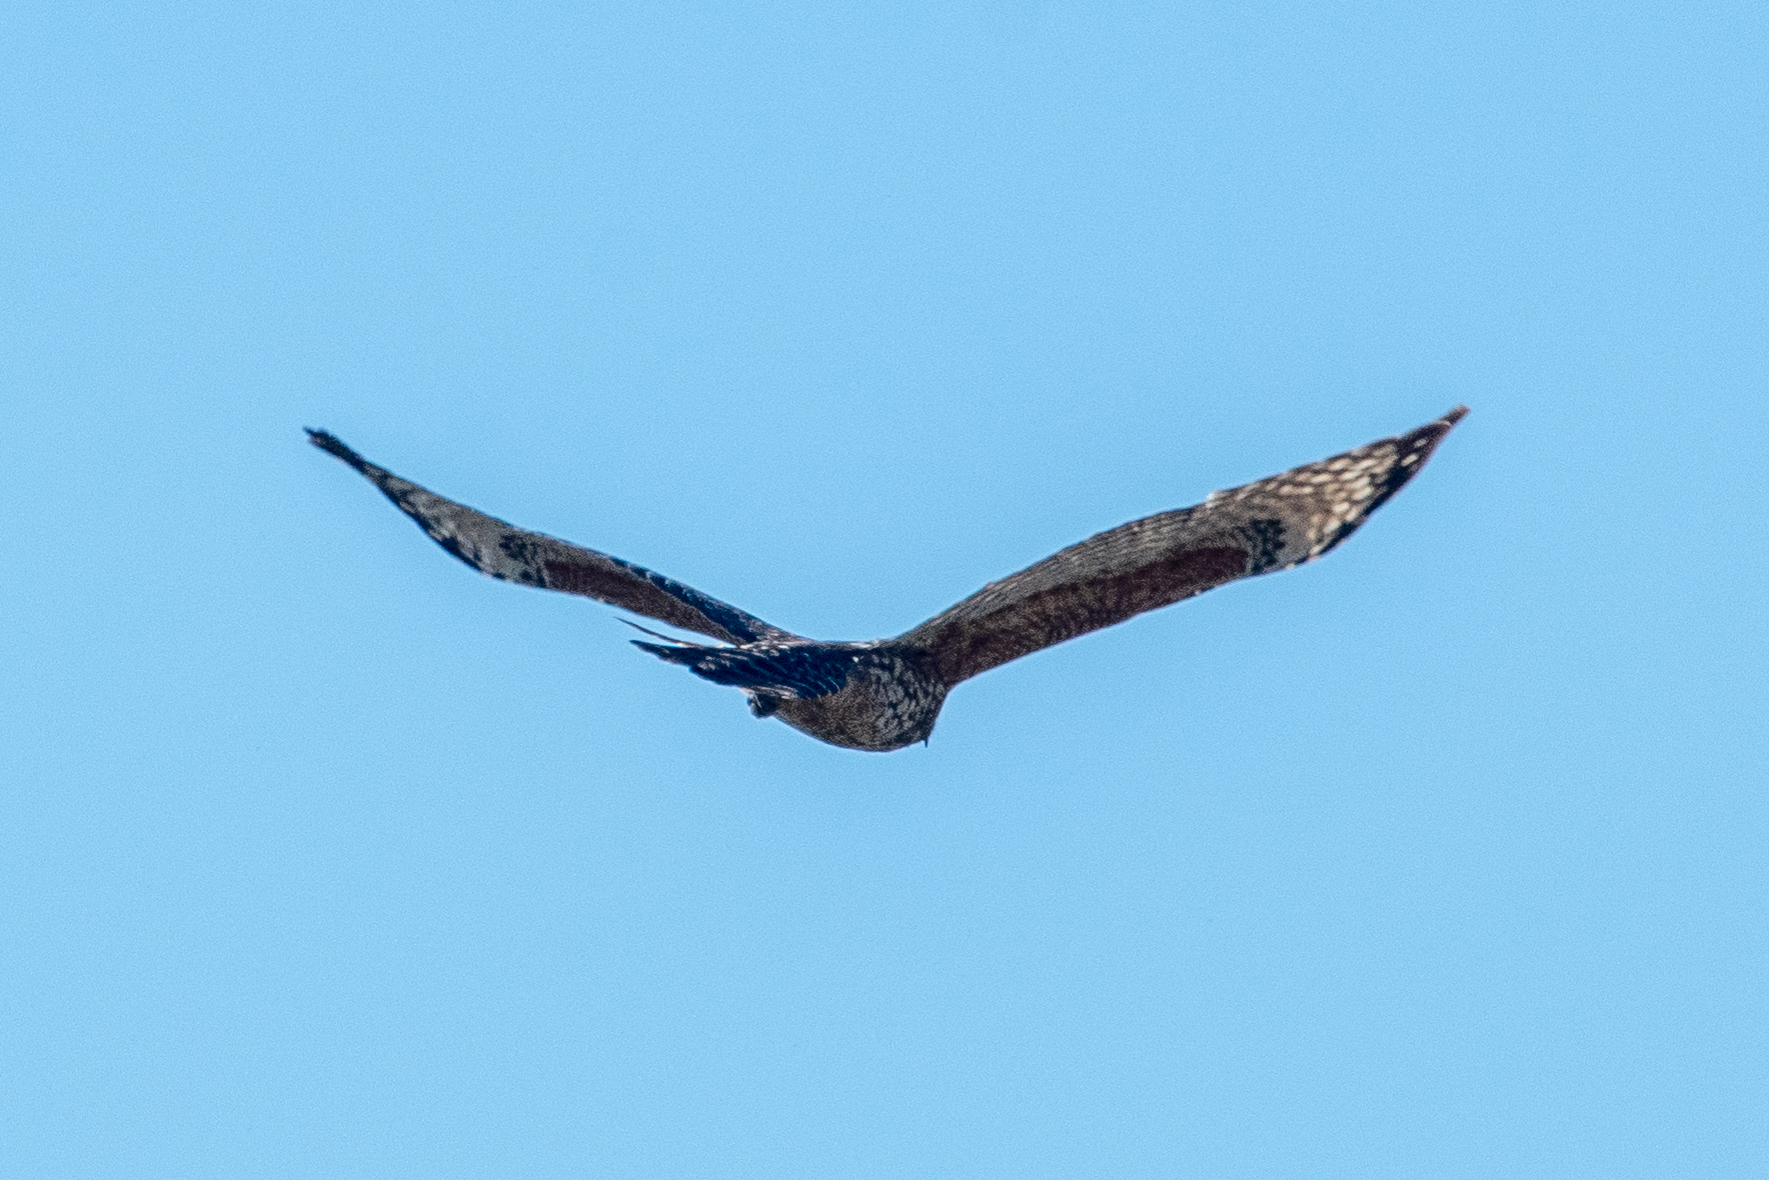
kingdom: Animalia
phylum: Chordata
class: Aves
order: Accipitriformes
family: Accipitridae
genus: Buteo
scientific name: Buteo lineatus
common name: Red-shouldered hawk
